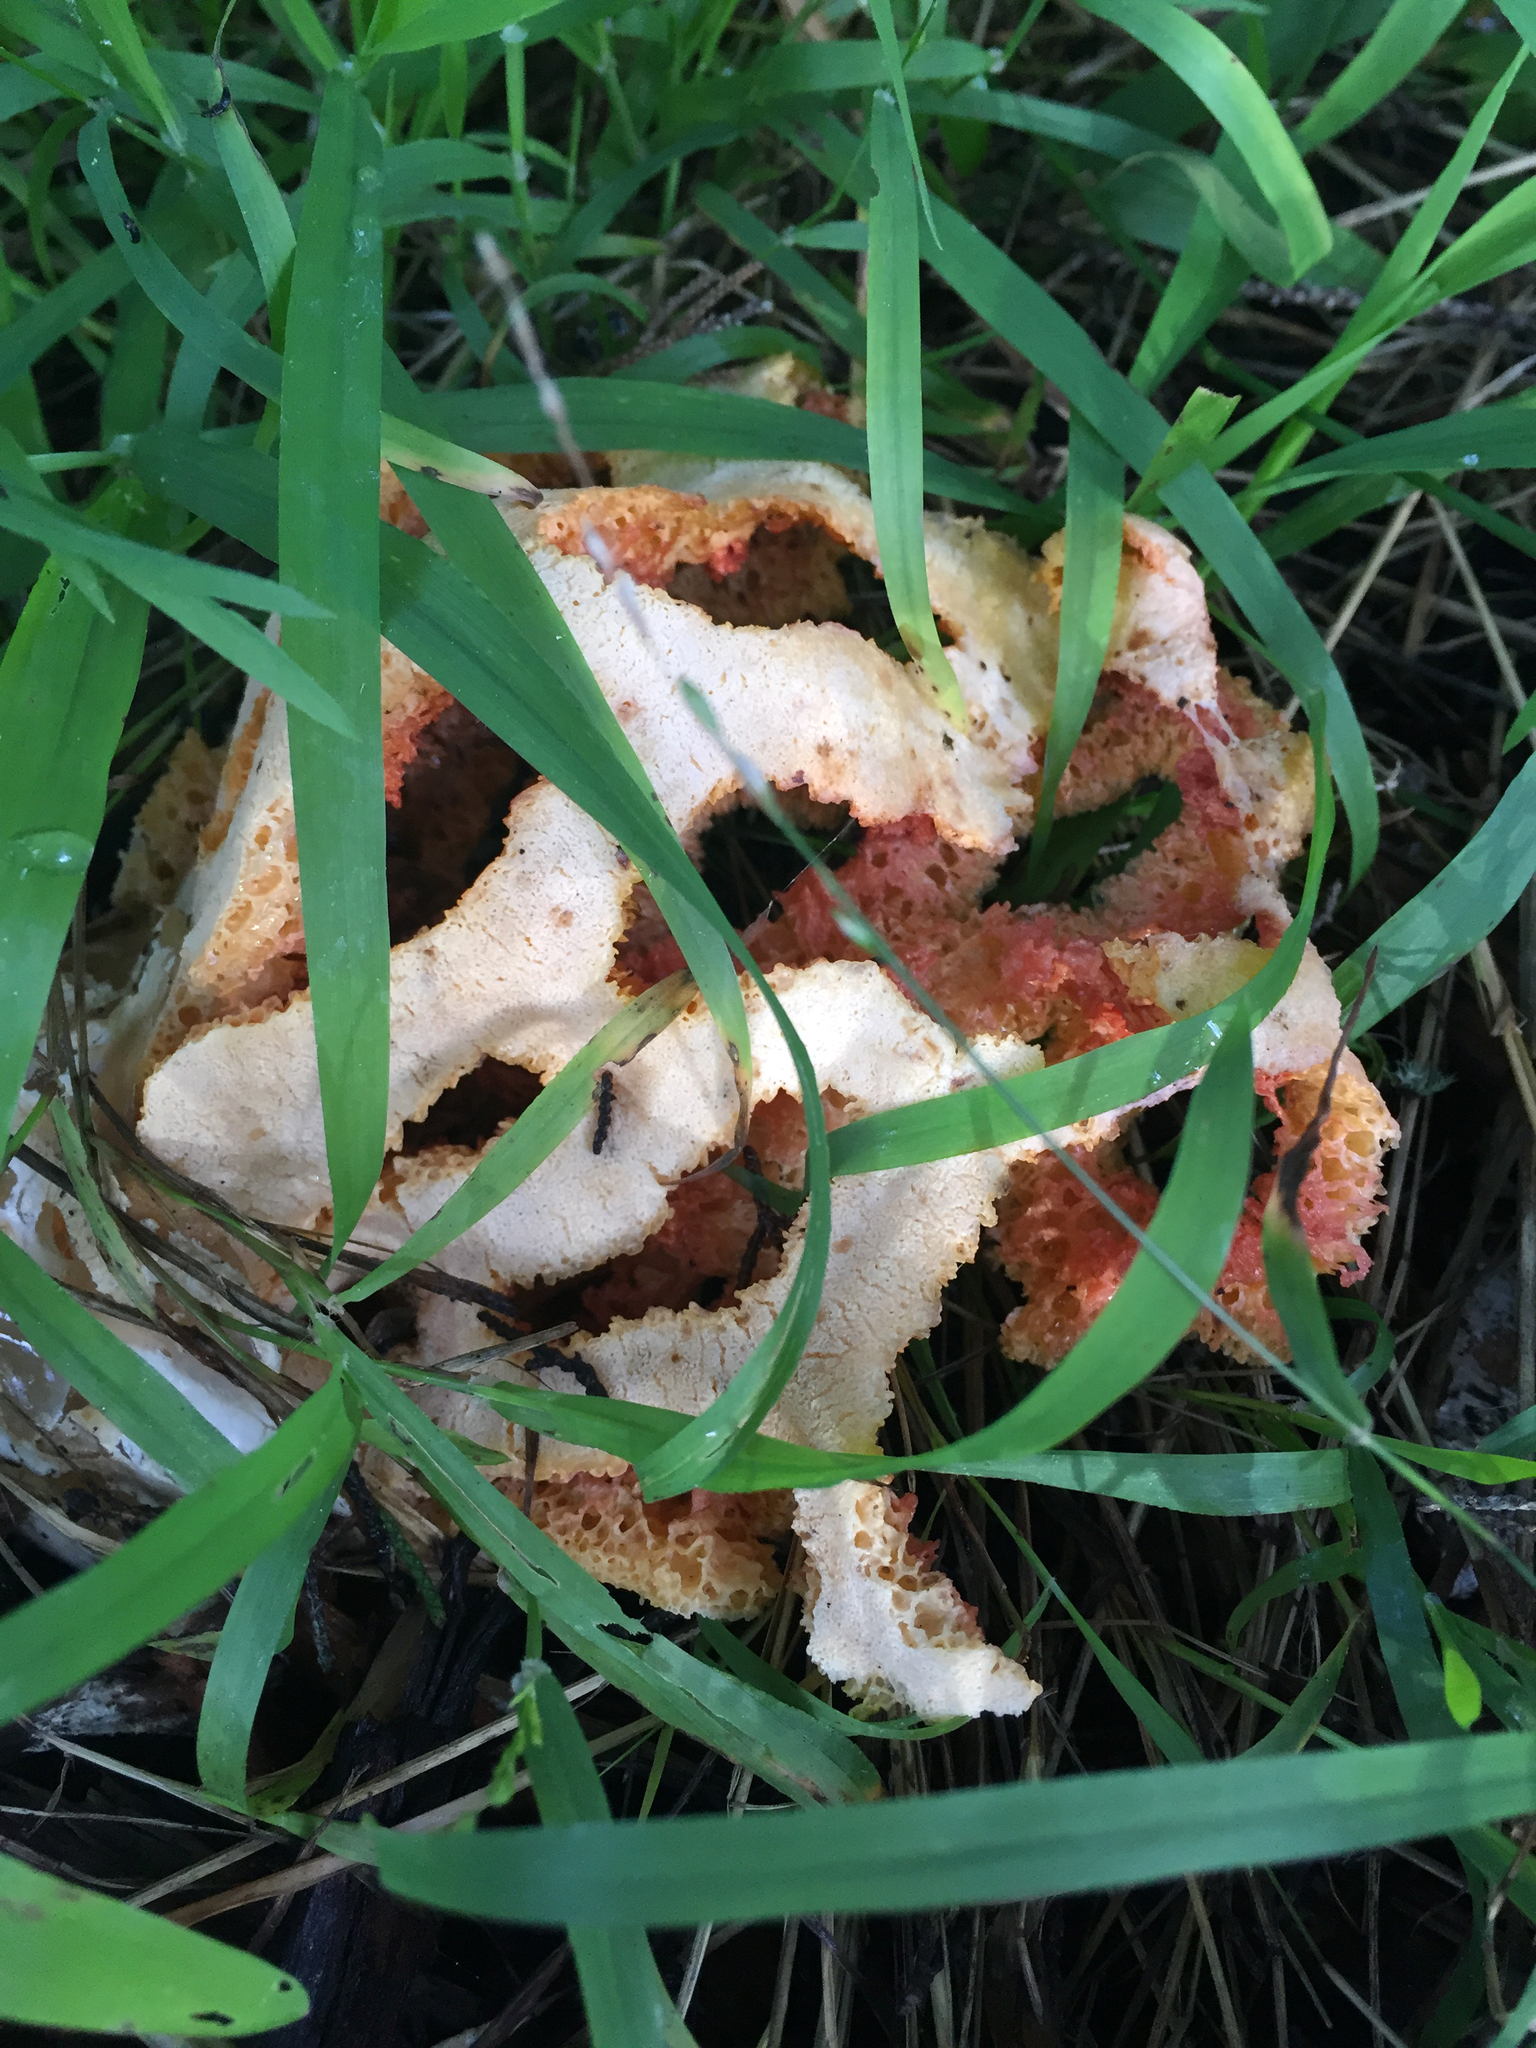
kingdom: Fungi
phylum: Basidiomycota
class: Agaricomycetes
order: Phallales
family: Phallaceae
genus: Clathrus
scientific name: Clathrus ruber
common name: Red cage
